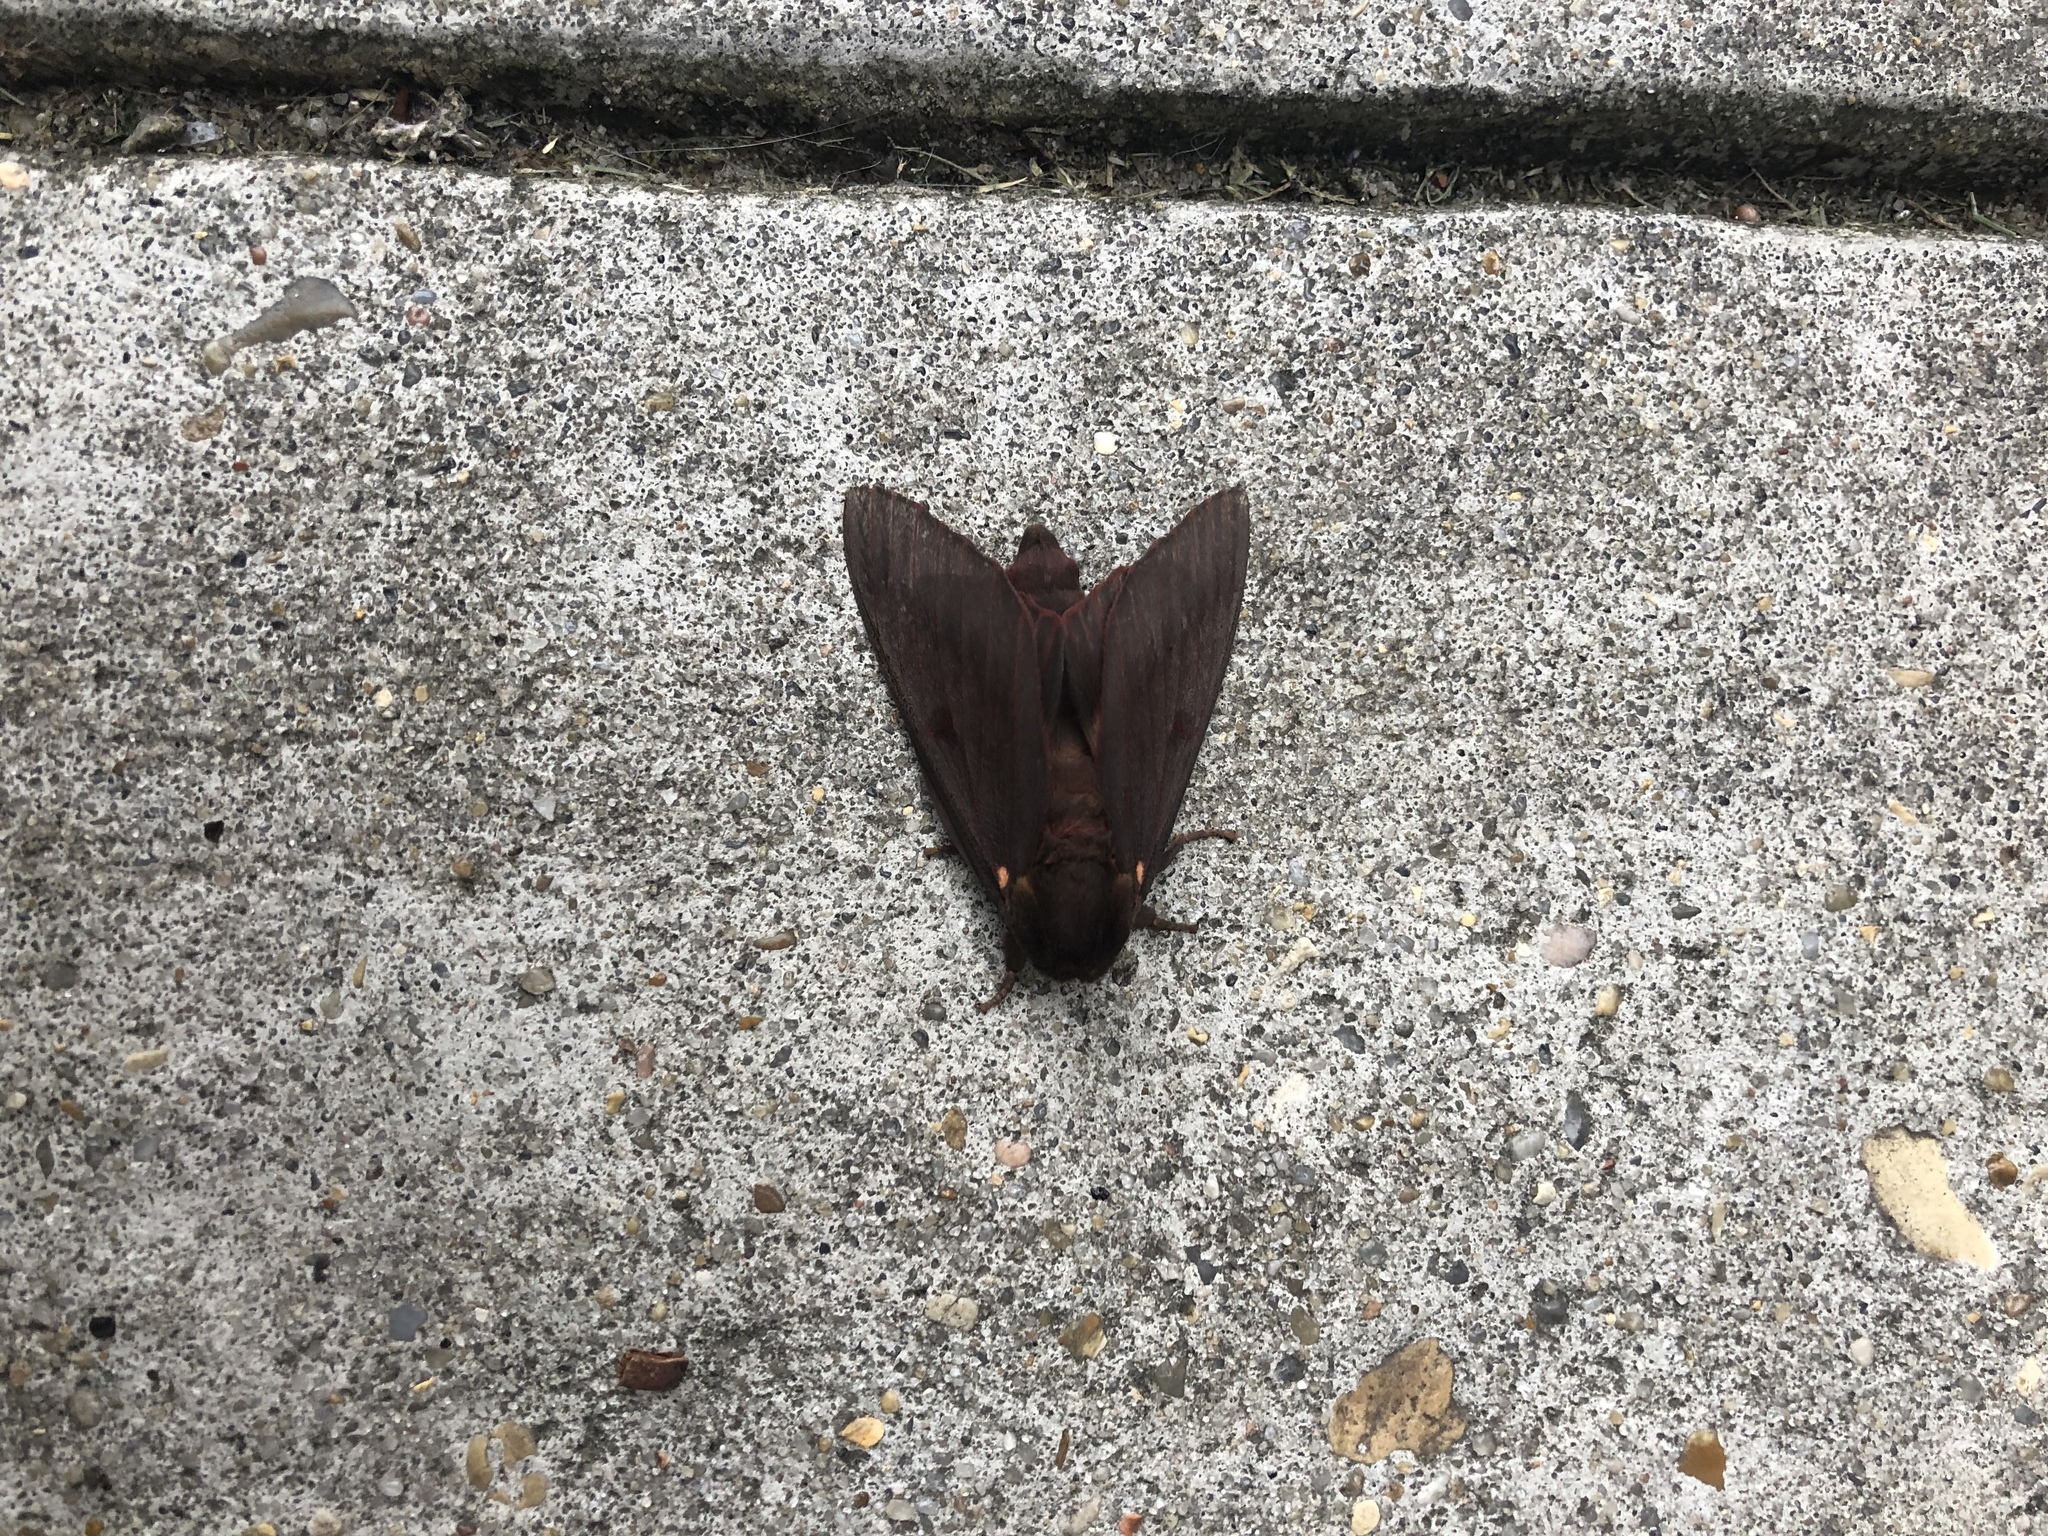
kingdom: Animalia
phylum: Arthropoda
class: Insecta
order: Lepidoptera
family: Saturniidae
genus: Citheronia
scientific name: Citheronia sepulcralis
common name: Pine-devil moth
